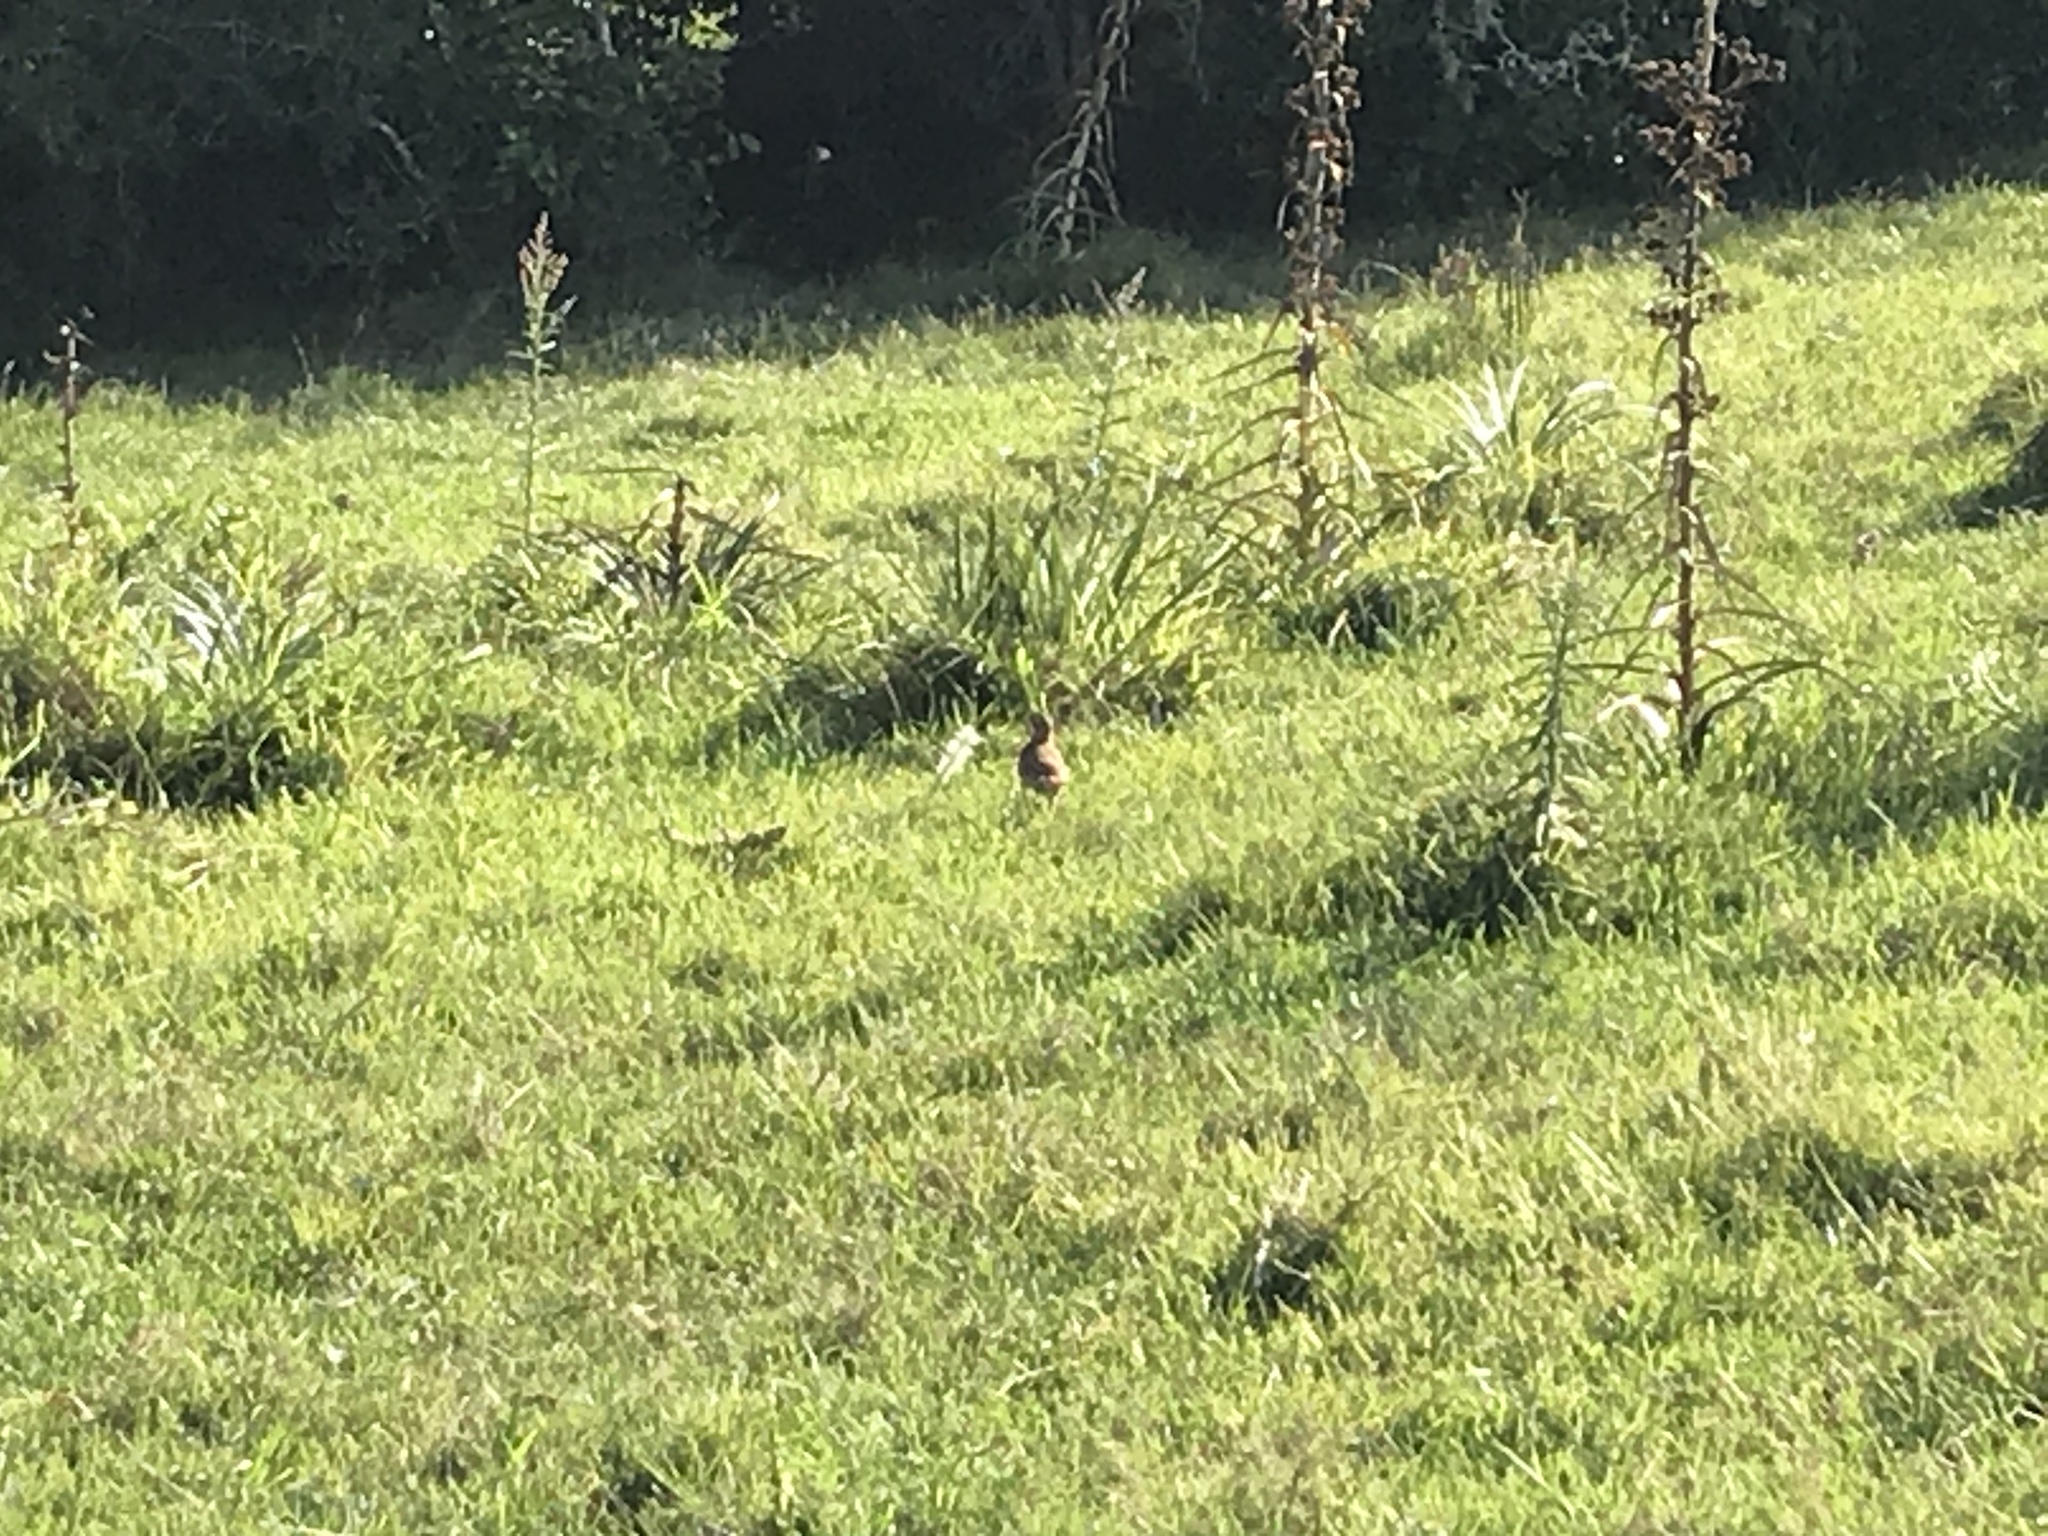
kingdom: Animalia
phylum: Chordata
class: Aves
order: Passeriformes
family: Furnariidae
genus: Furnarius
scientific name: Furnarius rufus
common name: Rufous hornero
